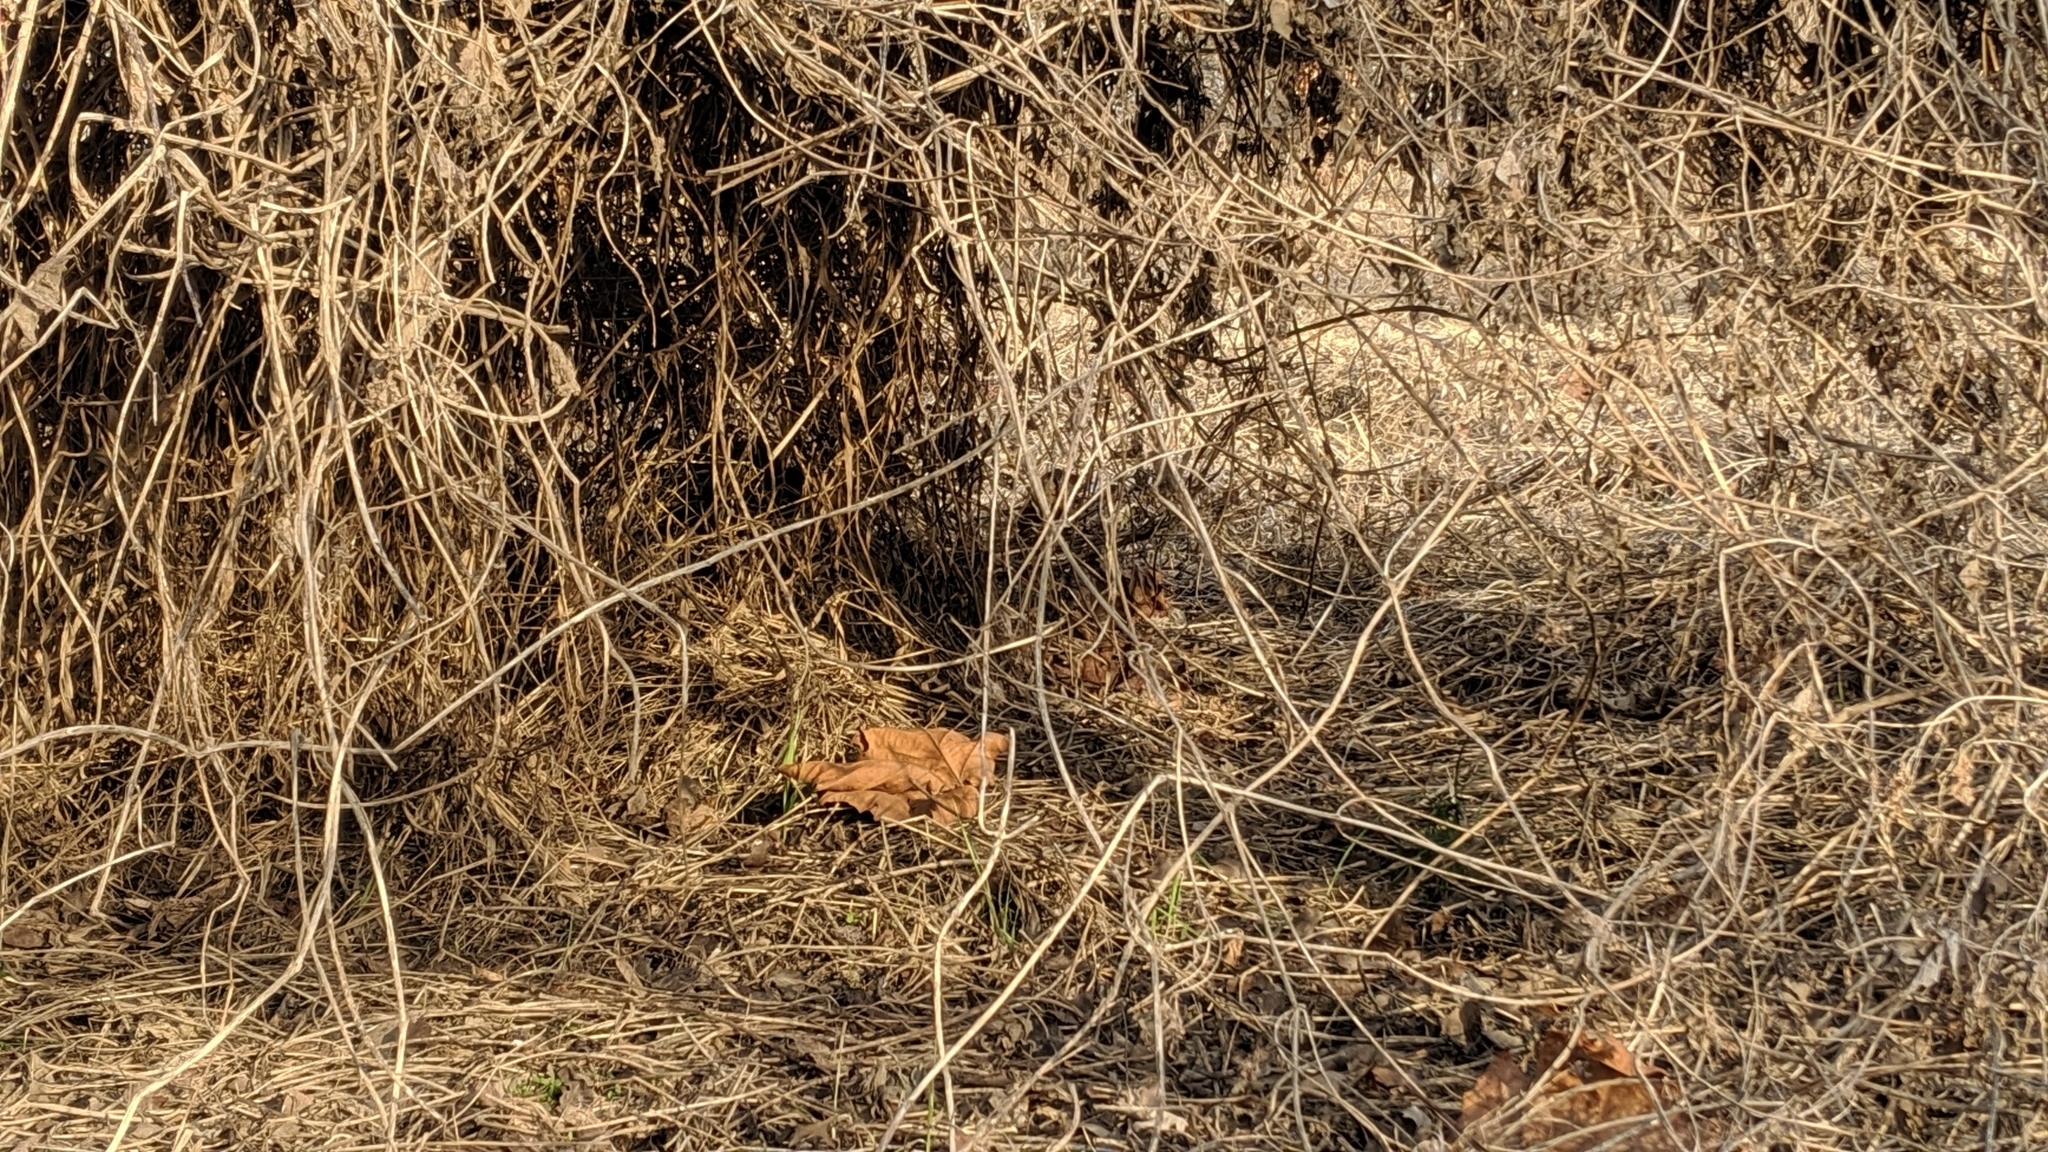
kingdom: Plantae
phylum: Tracheophyta
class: Magnoliopsida
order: Cucurbitales
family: Cucurbitaceae
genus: Echinocystis
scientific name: Echinocystis lobata
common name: Wild cucumber
